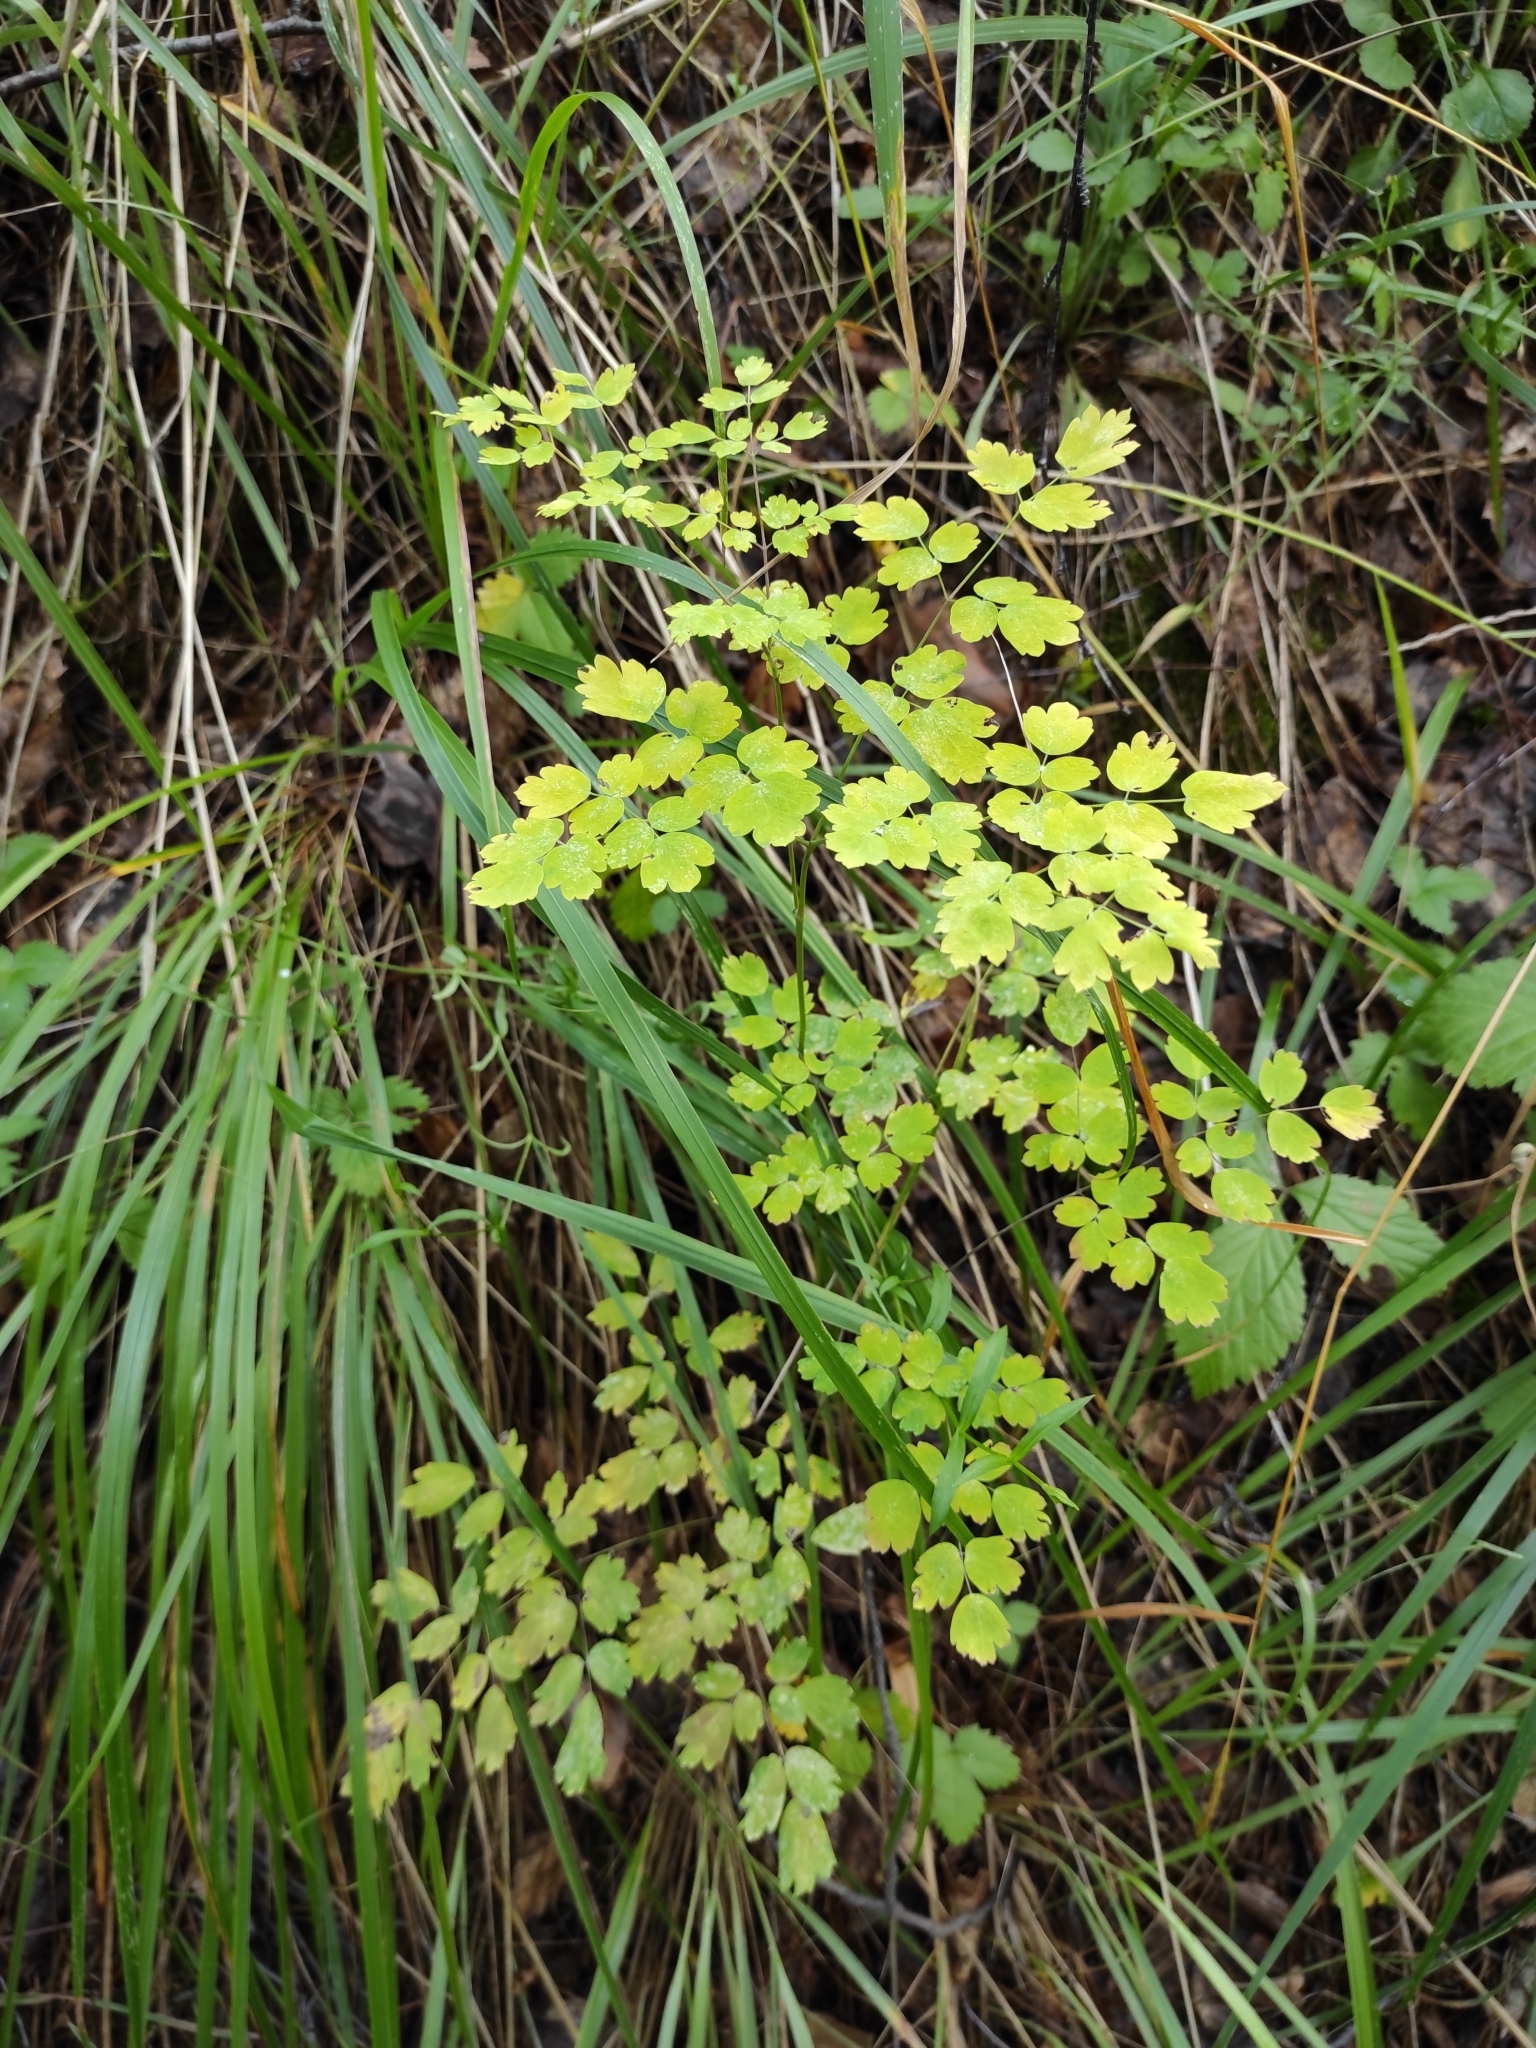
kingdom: Plantae
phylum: Tracheophyta
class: Magnoliopsida
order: Ranunculales
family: Ranunculaceae
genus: Thalictrum
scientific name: Thalictrum minus
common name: Lesser meadow-rue
